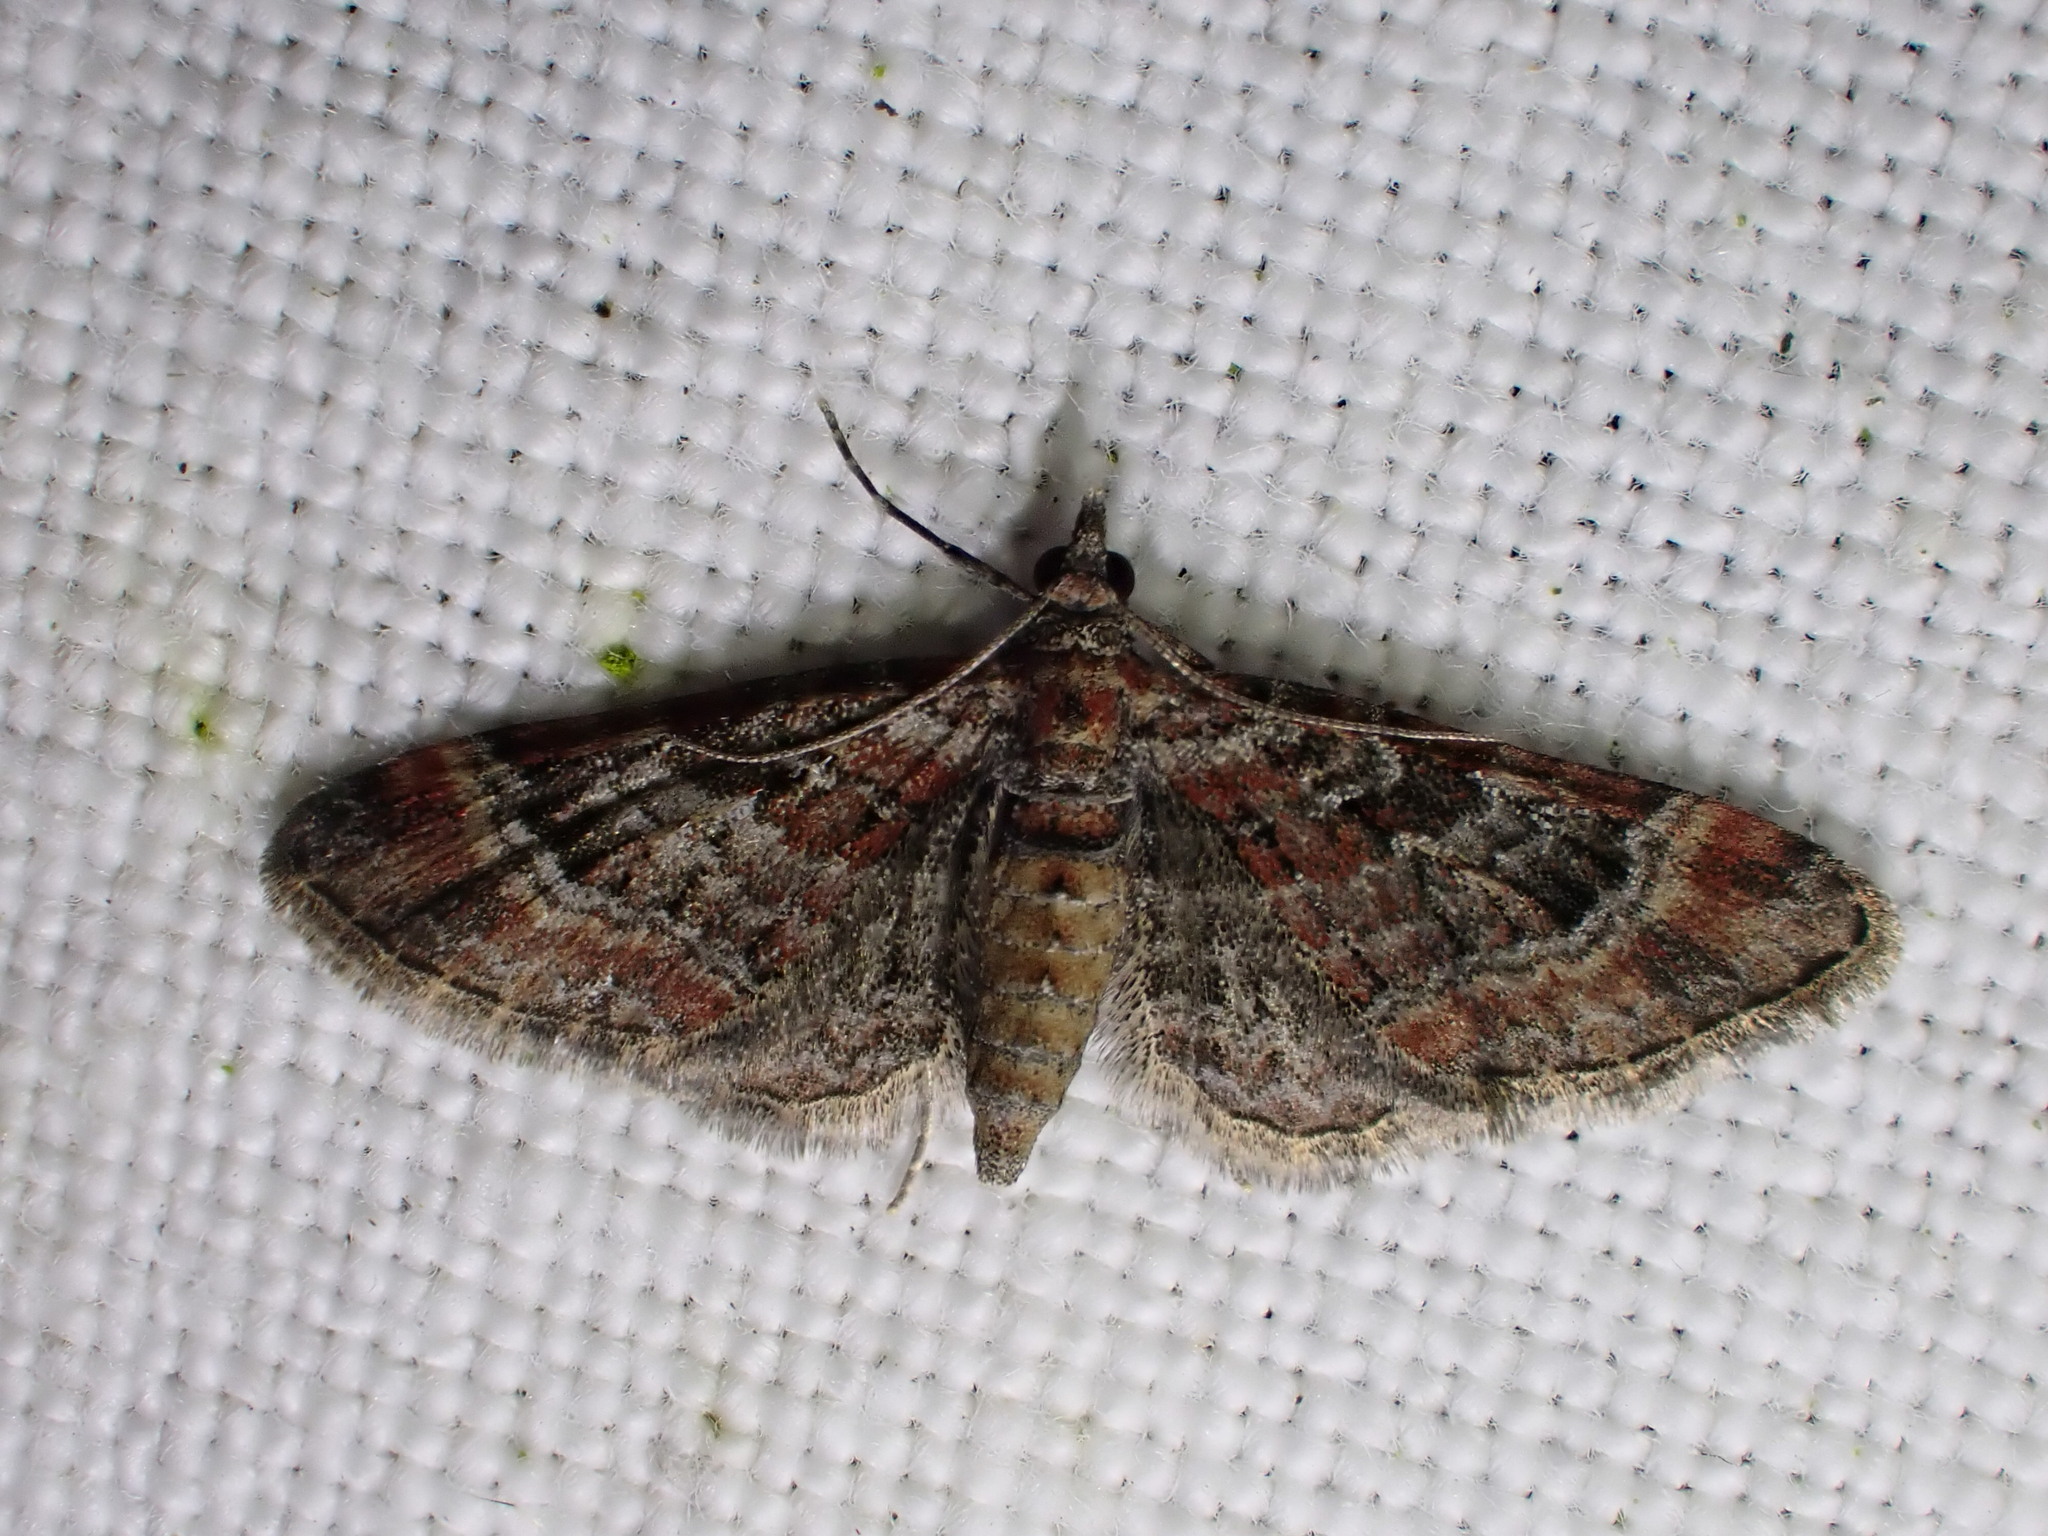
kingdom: Animalia
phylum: Arthropoda
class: Insecta
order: Lepidoptera
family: Geometridae
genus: Gymnoscelis
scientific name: Gymnoscelis rufifasciata
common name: Double-striped pug
